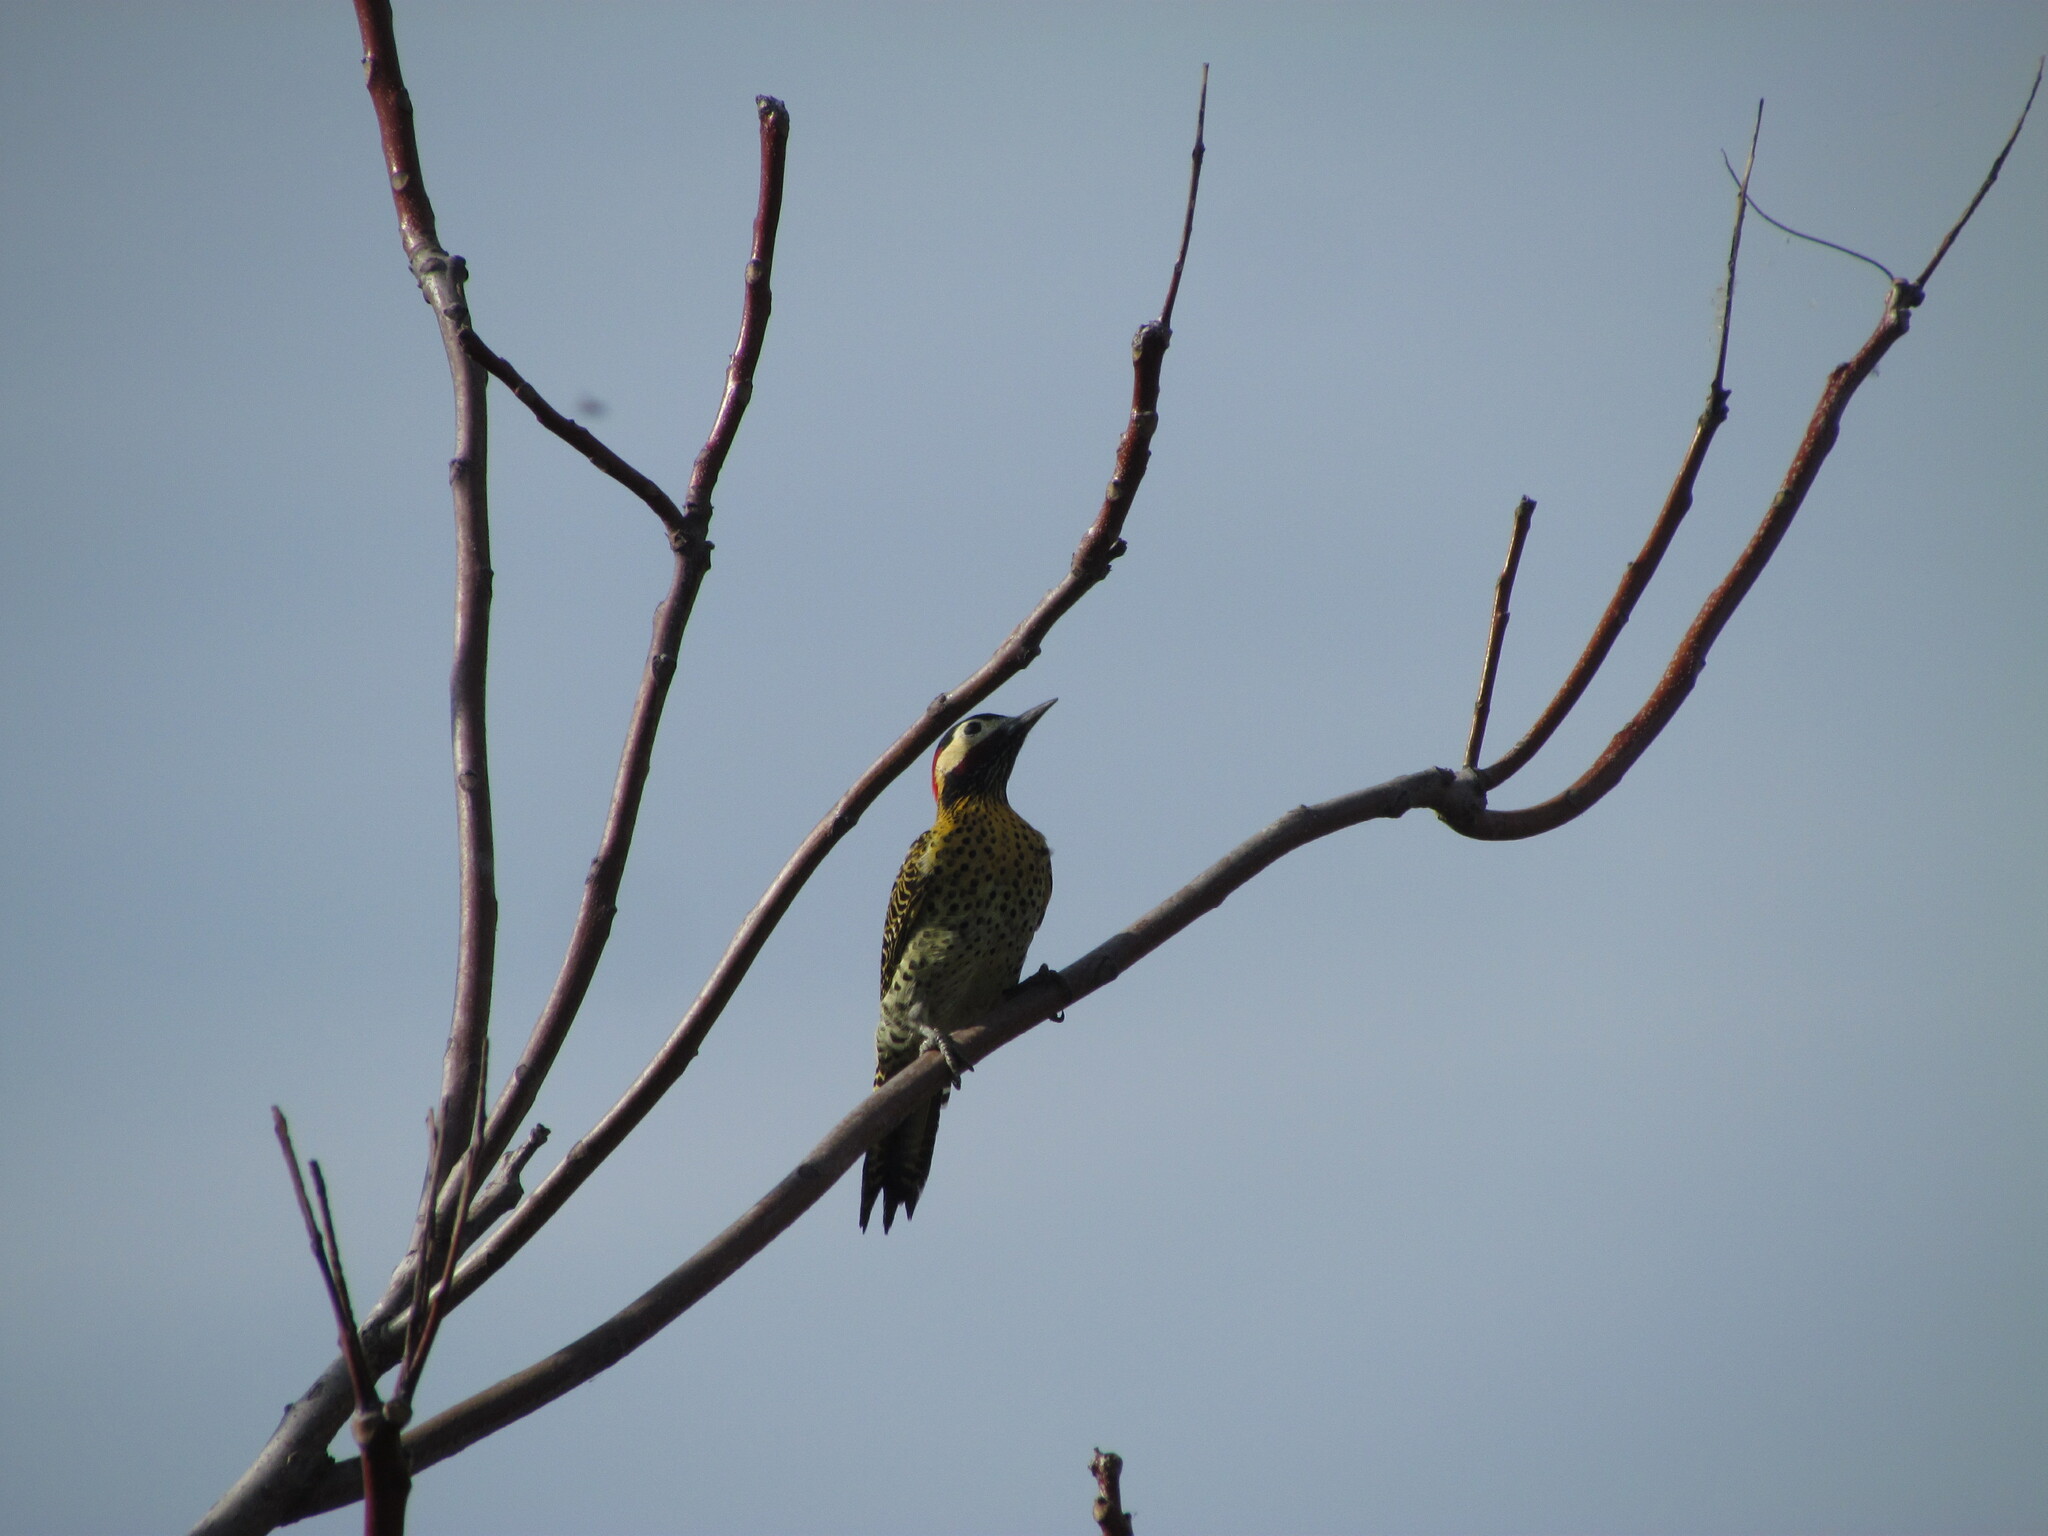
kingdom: Animalia
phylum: Chordata
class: Aves
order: Piciformes
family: Picidae
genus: Colaptes
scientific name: Colaptes melanochloros
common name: Green-barred woodpecker
